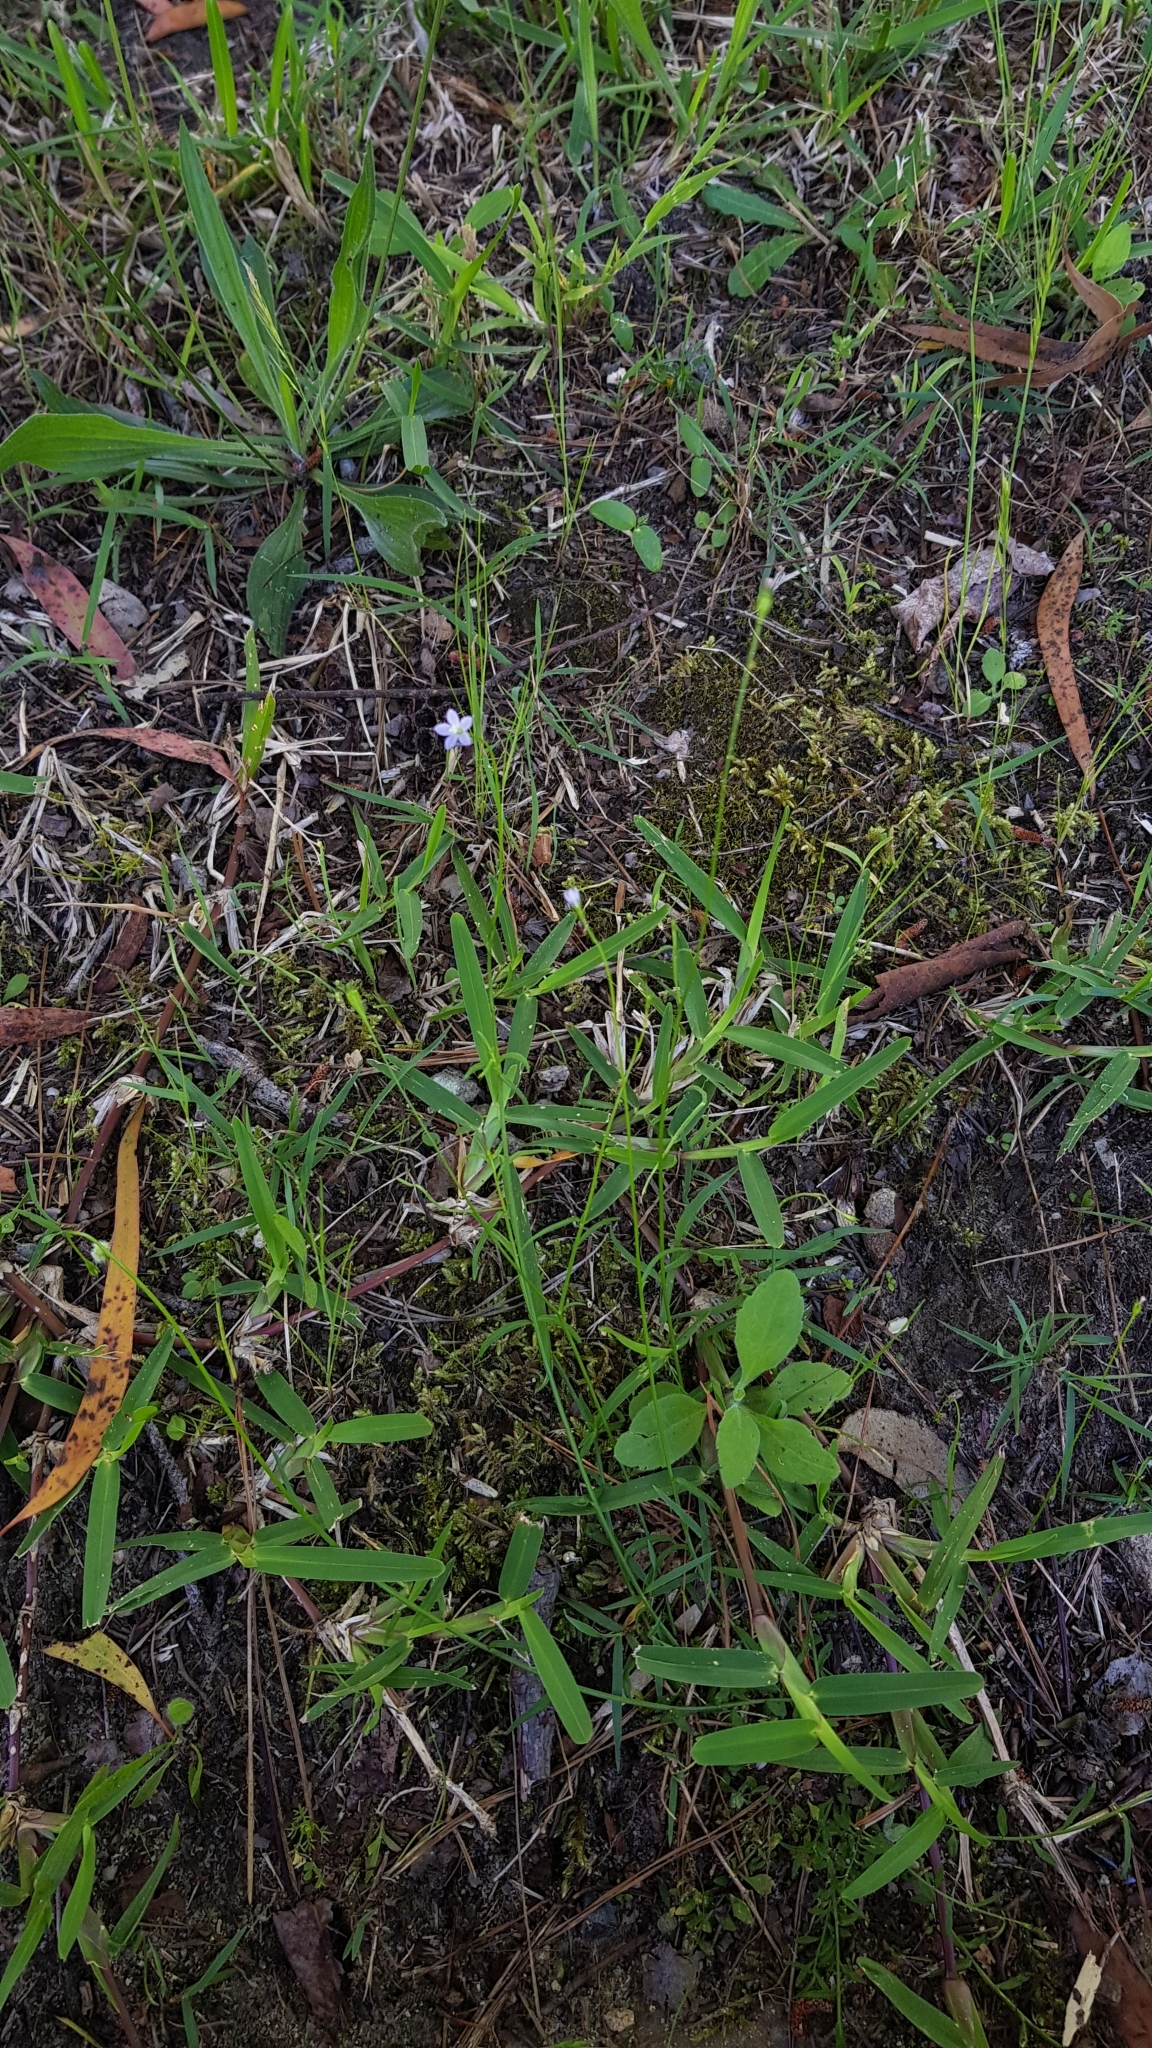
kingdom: Plantae
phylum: Tracheophyta
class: Magnoliopsida
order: Asterales
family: Campanulaceae
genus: Wahlenbergia
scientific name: Wahlenbergia gracilis
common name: Harebell
